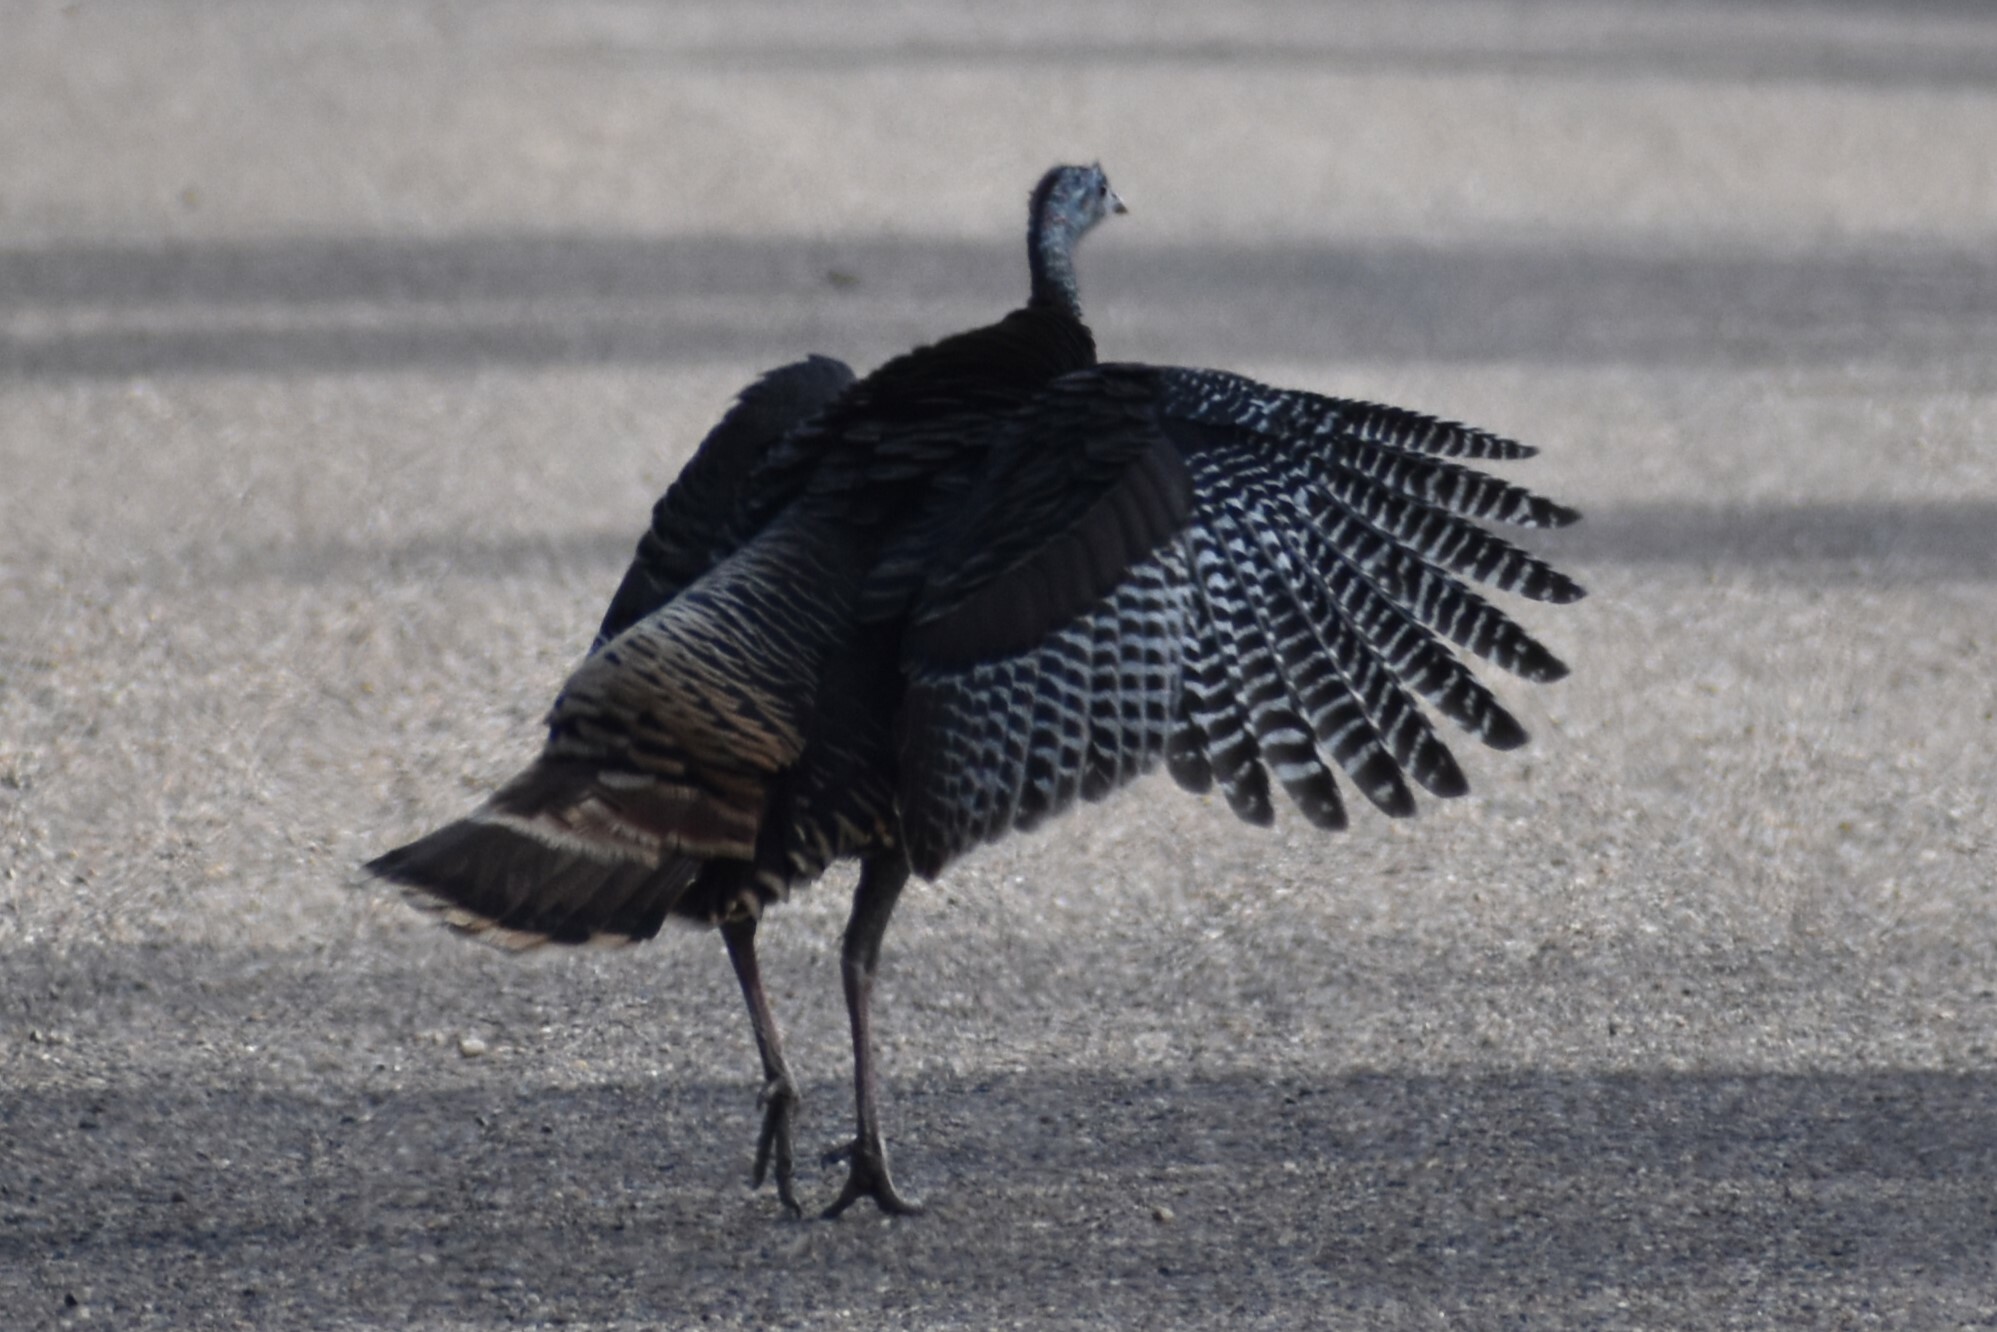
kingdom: Animalia
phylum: Chordata
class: Aves
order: Galliformes
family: Phasianidae
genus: Meleagris
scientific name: Meleagris gallopavo
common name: Wild turkey
